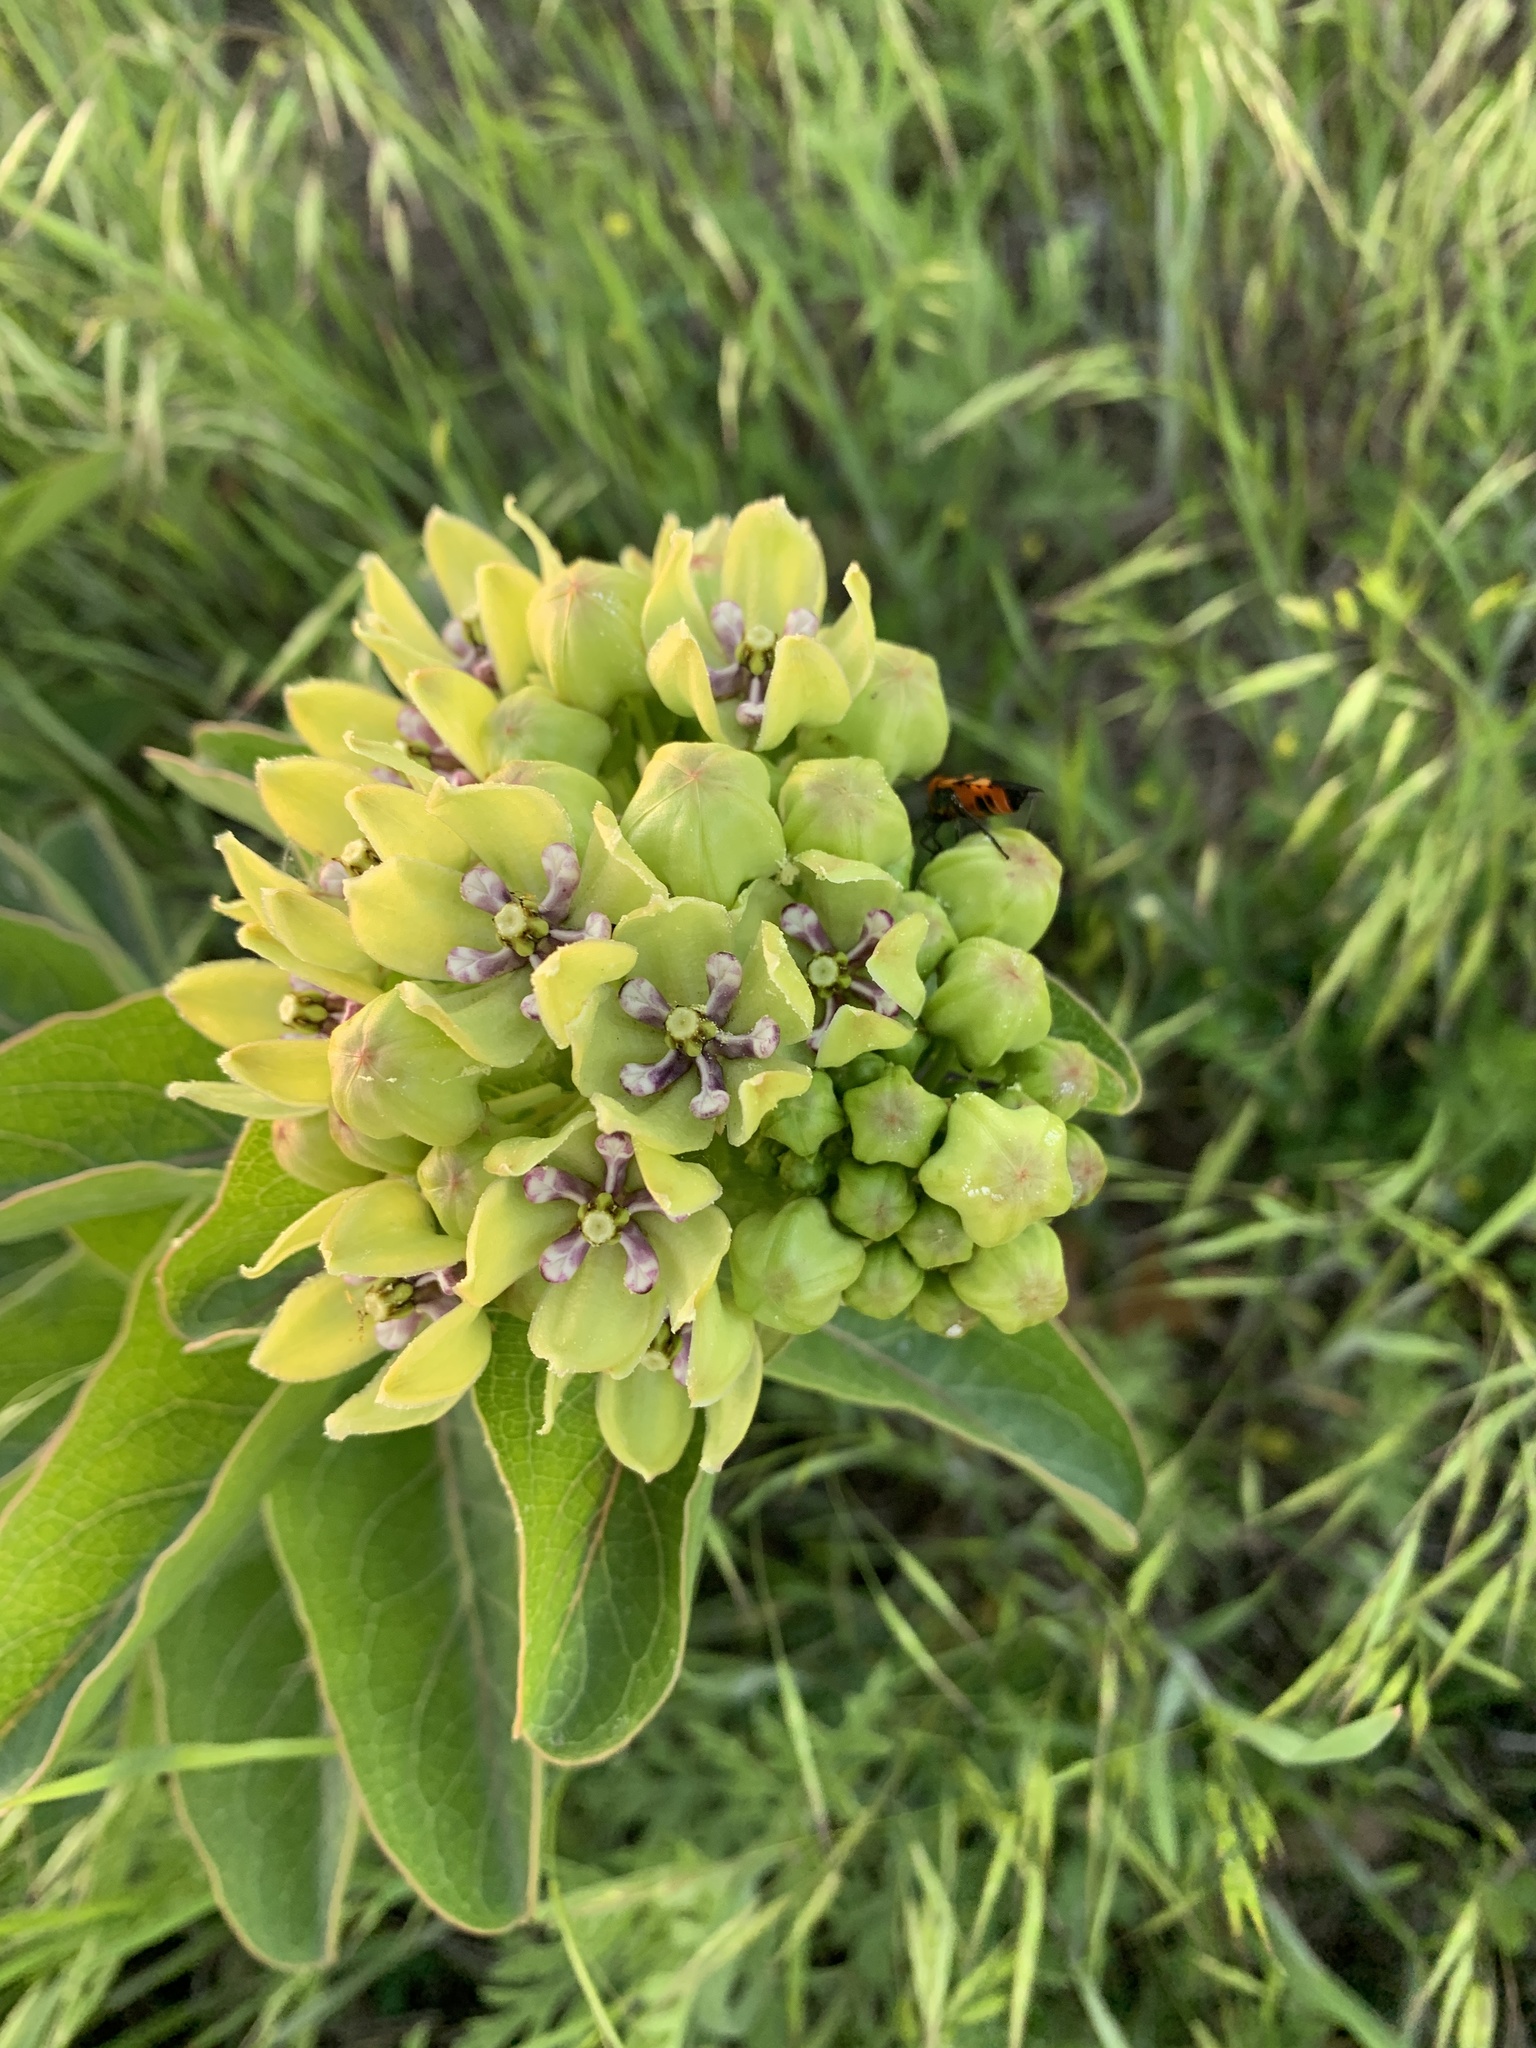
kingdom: Plantae
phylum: Tracheophyta
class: Magnoliopsida
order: Gentianales
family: Apocynaceae
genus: Asclepias
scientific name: Asclepias viridis
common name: Antelope-horns
